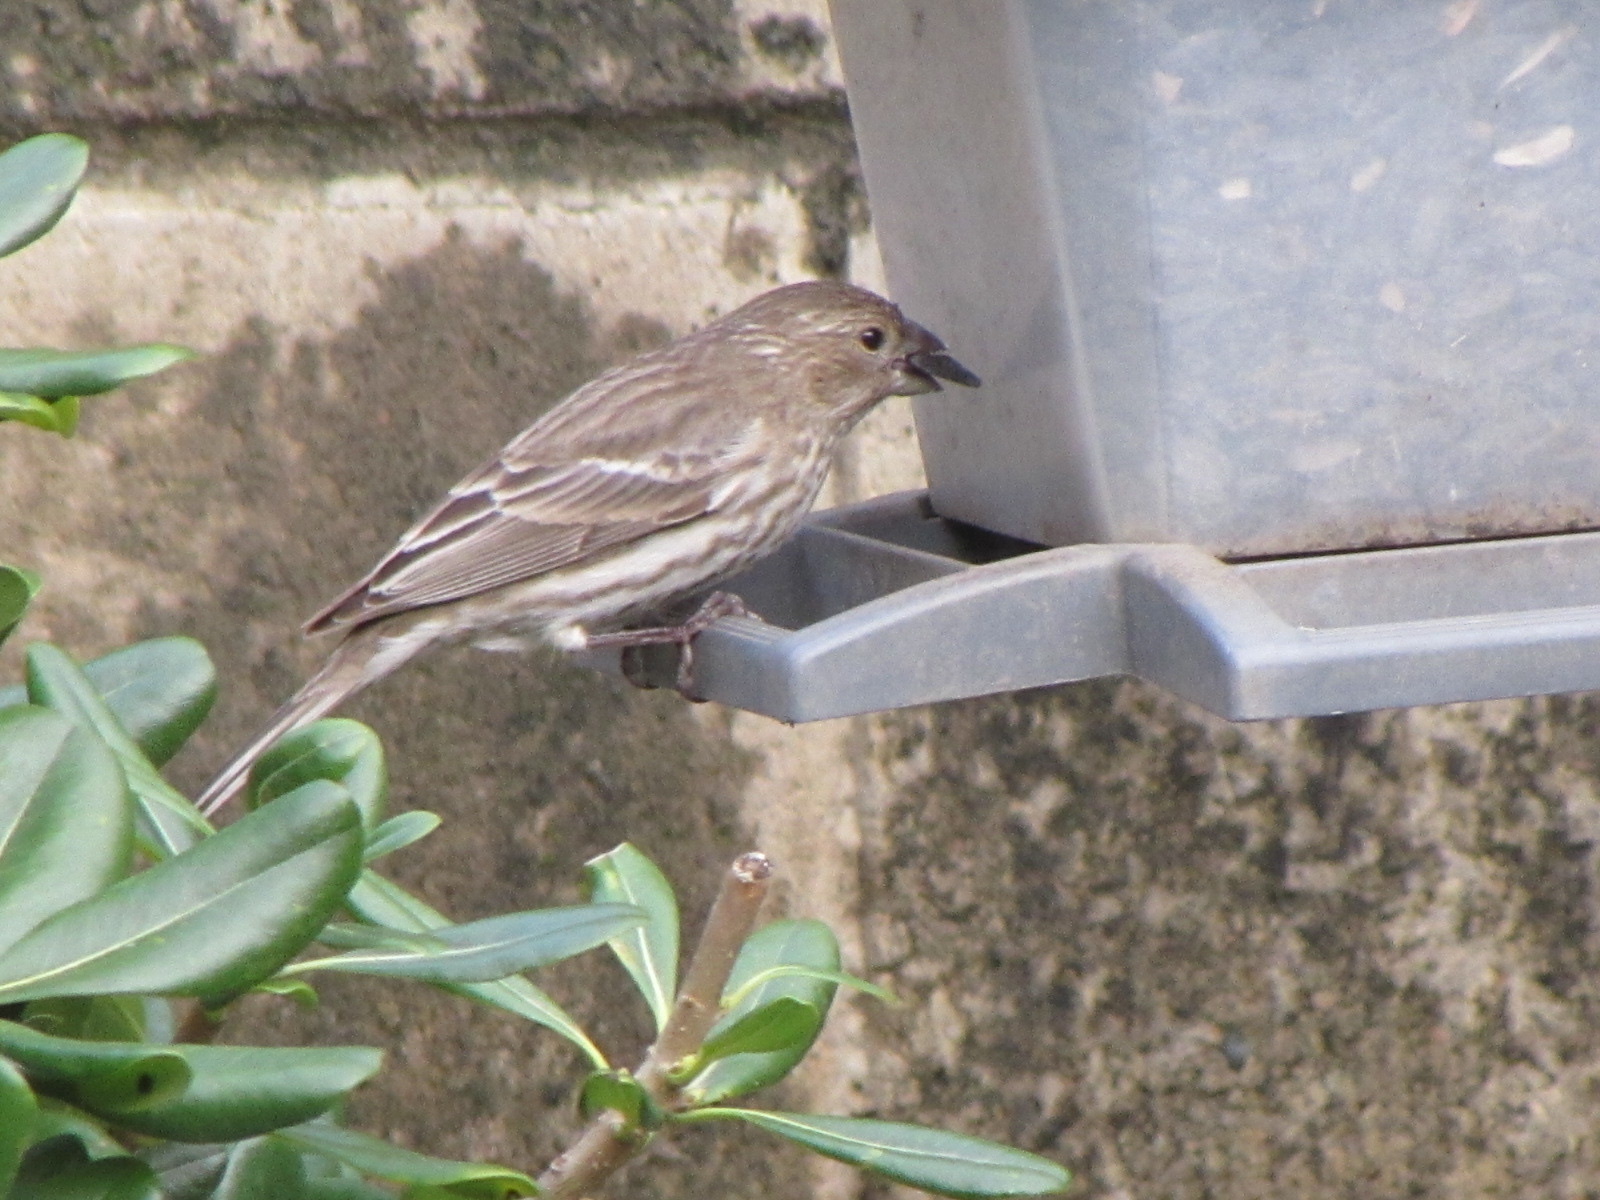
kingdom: Animalia
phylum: Chordata
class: Aves
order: Passeriformes
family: Fringillidae
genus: Haemorhous
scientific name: Haemorhous mexicanus
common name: House finch
